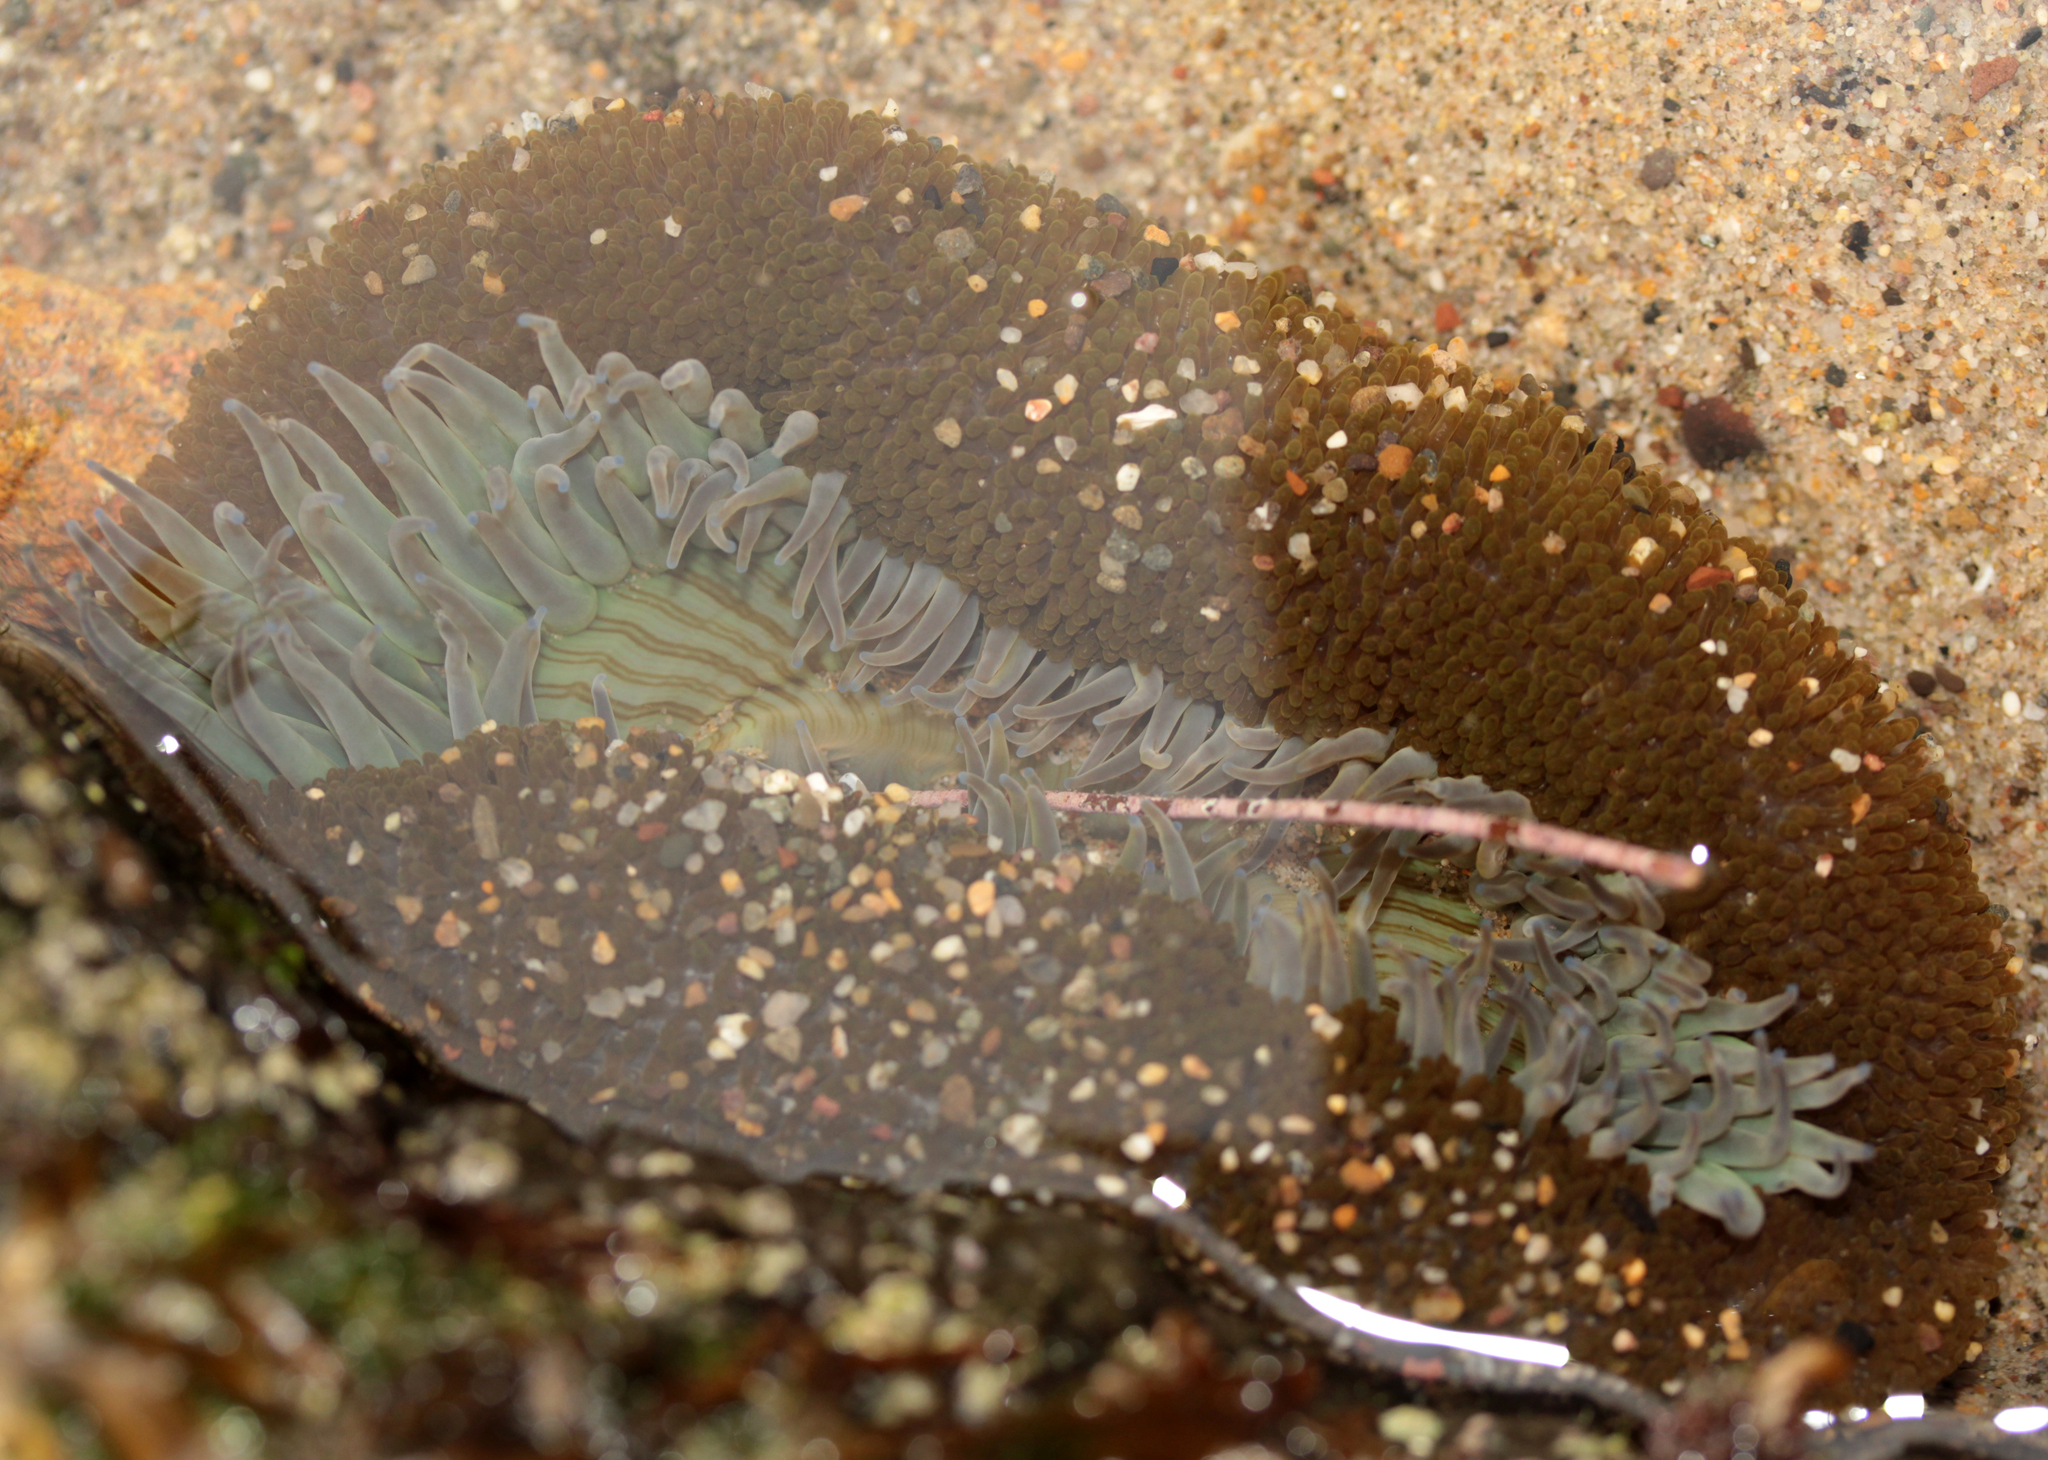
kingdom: Animalia
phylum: Cnidaria
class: Anthozoa
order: Actiniaria
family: Actiniidae
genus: Anthopleura
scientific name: Anthopleura sola
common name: Sun anemone
